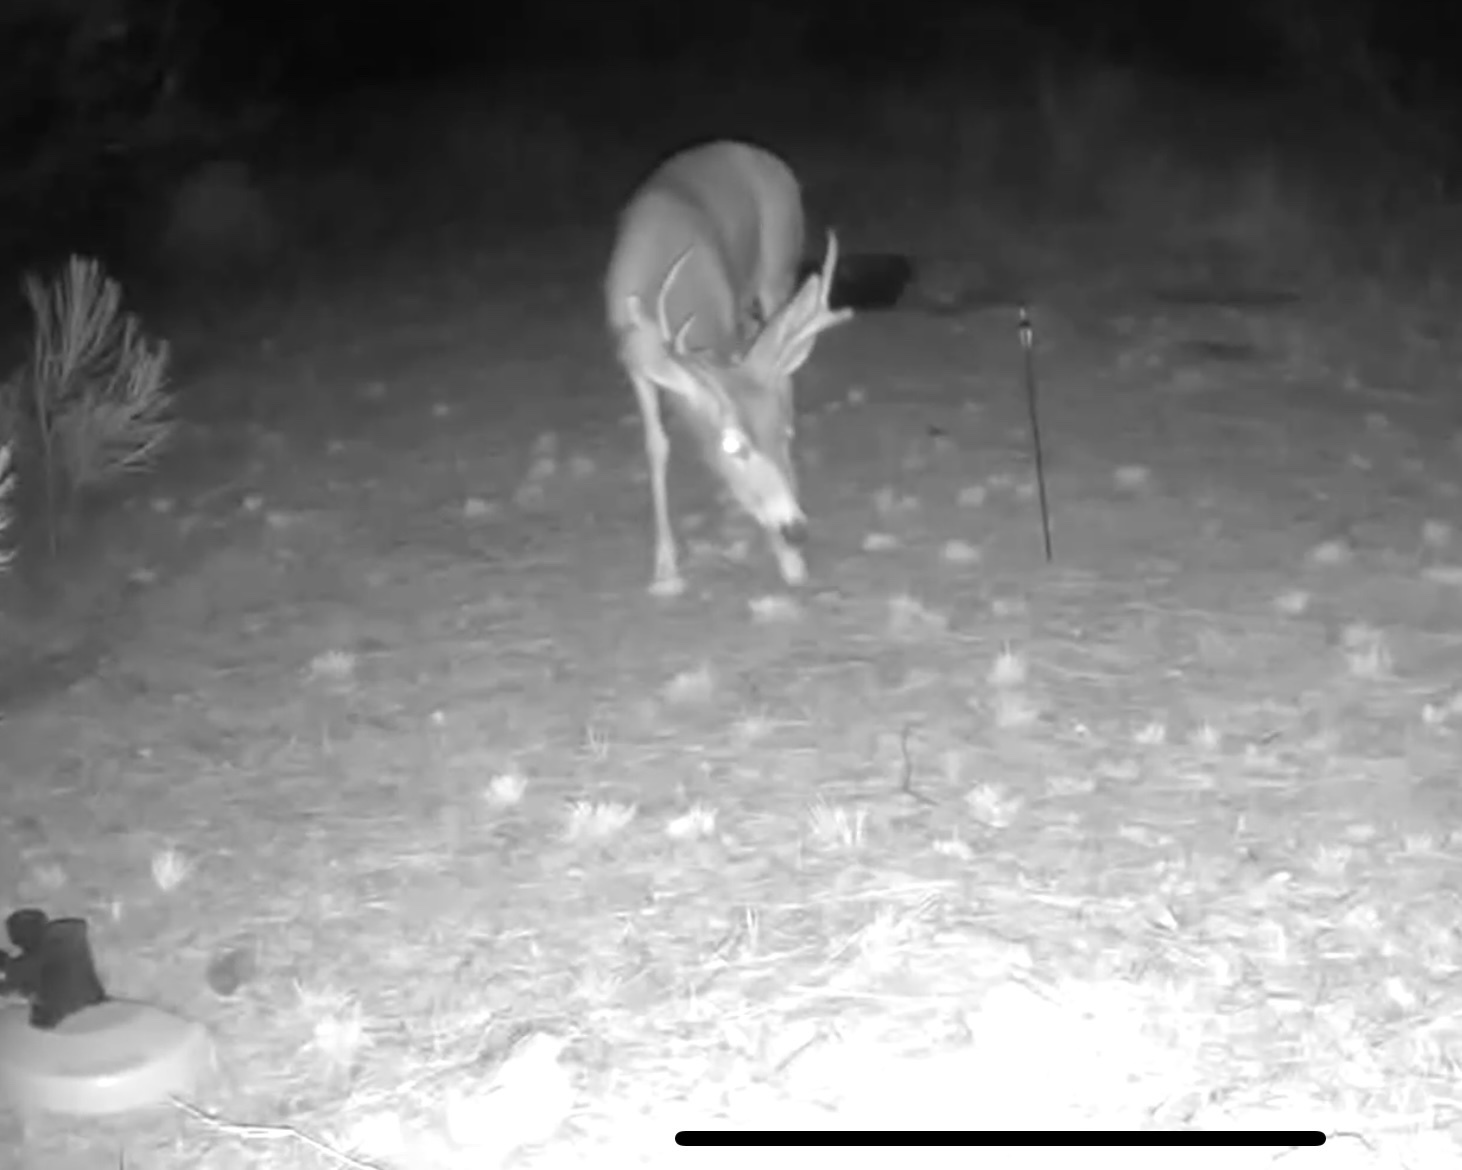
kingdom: Animalia
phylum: Chordata
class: Mammalia
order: Artiodactyla
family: Cervidae
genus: Odocoileus
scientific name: Odocoileus hemionus
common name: Mule deer
